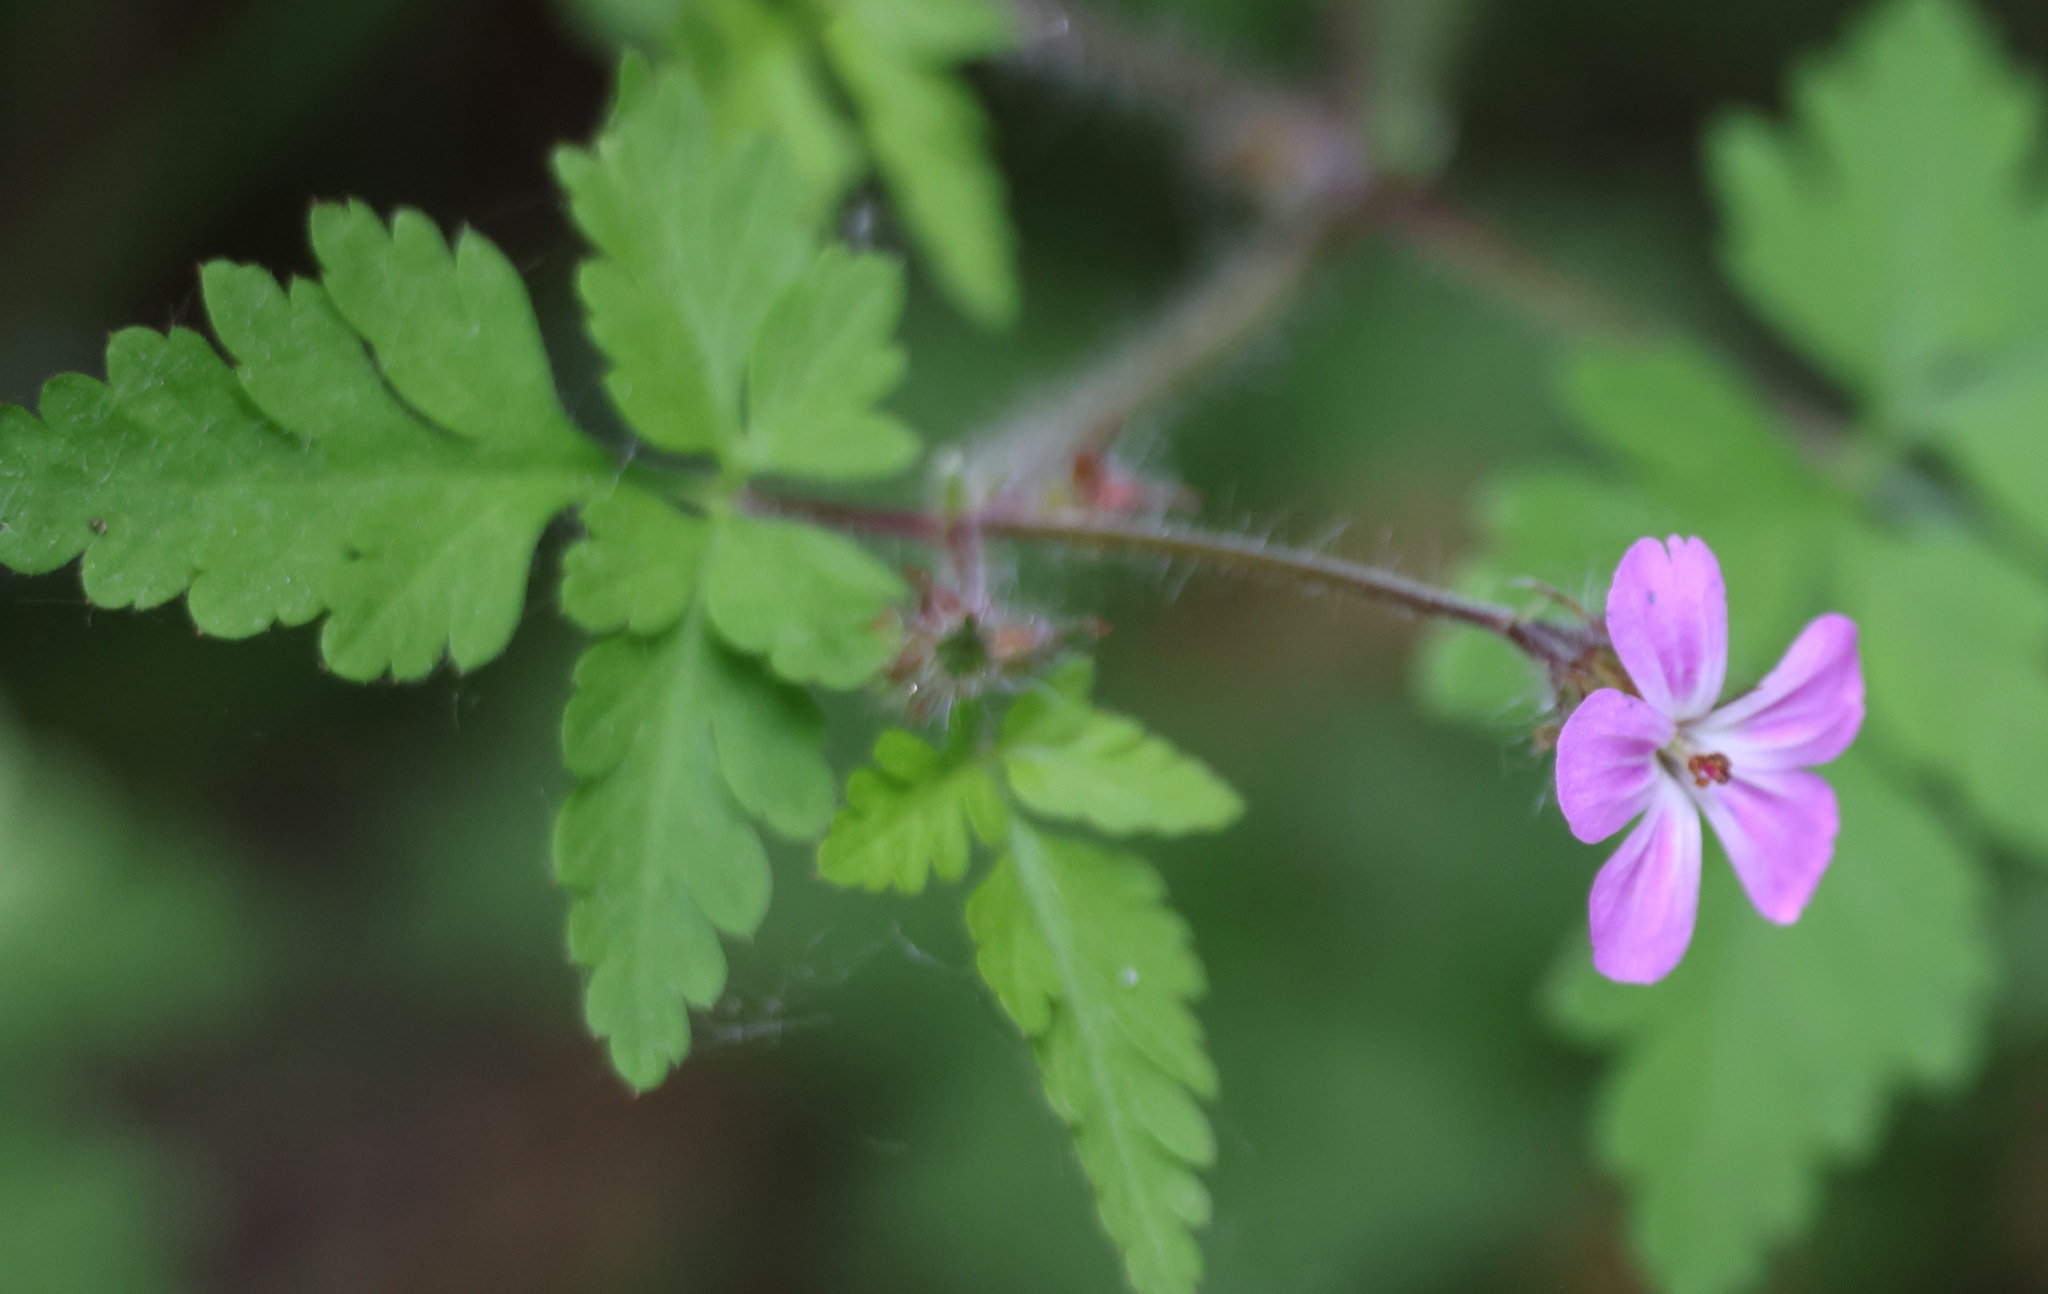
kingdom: Plantae
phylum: Tracheophyta
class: Magnoliopsida
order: Geraniales
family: Geraniaceae
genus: Geranium
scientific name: Geranium robertianum
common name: Herb-robert
